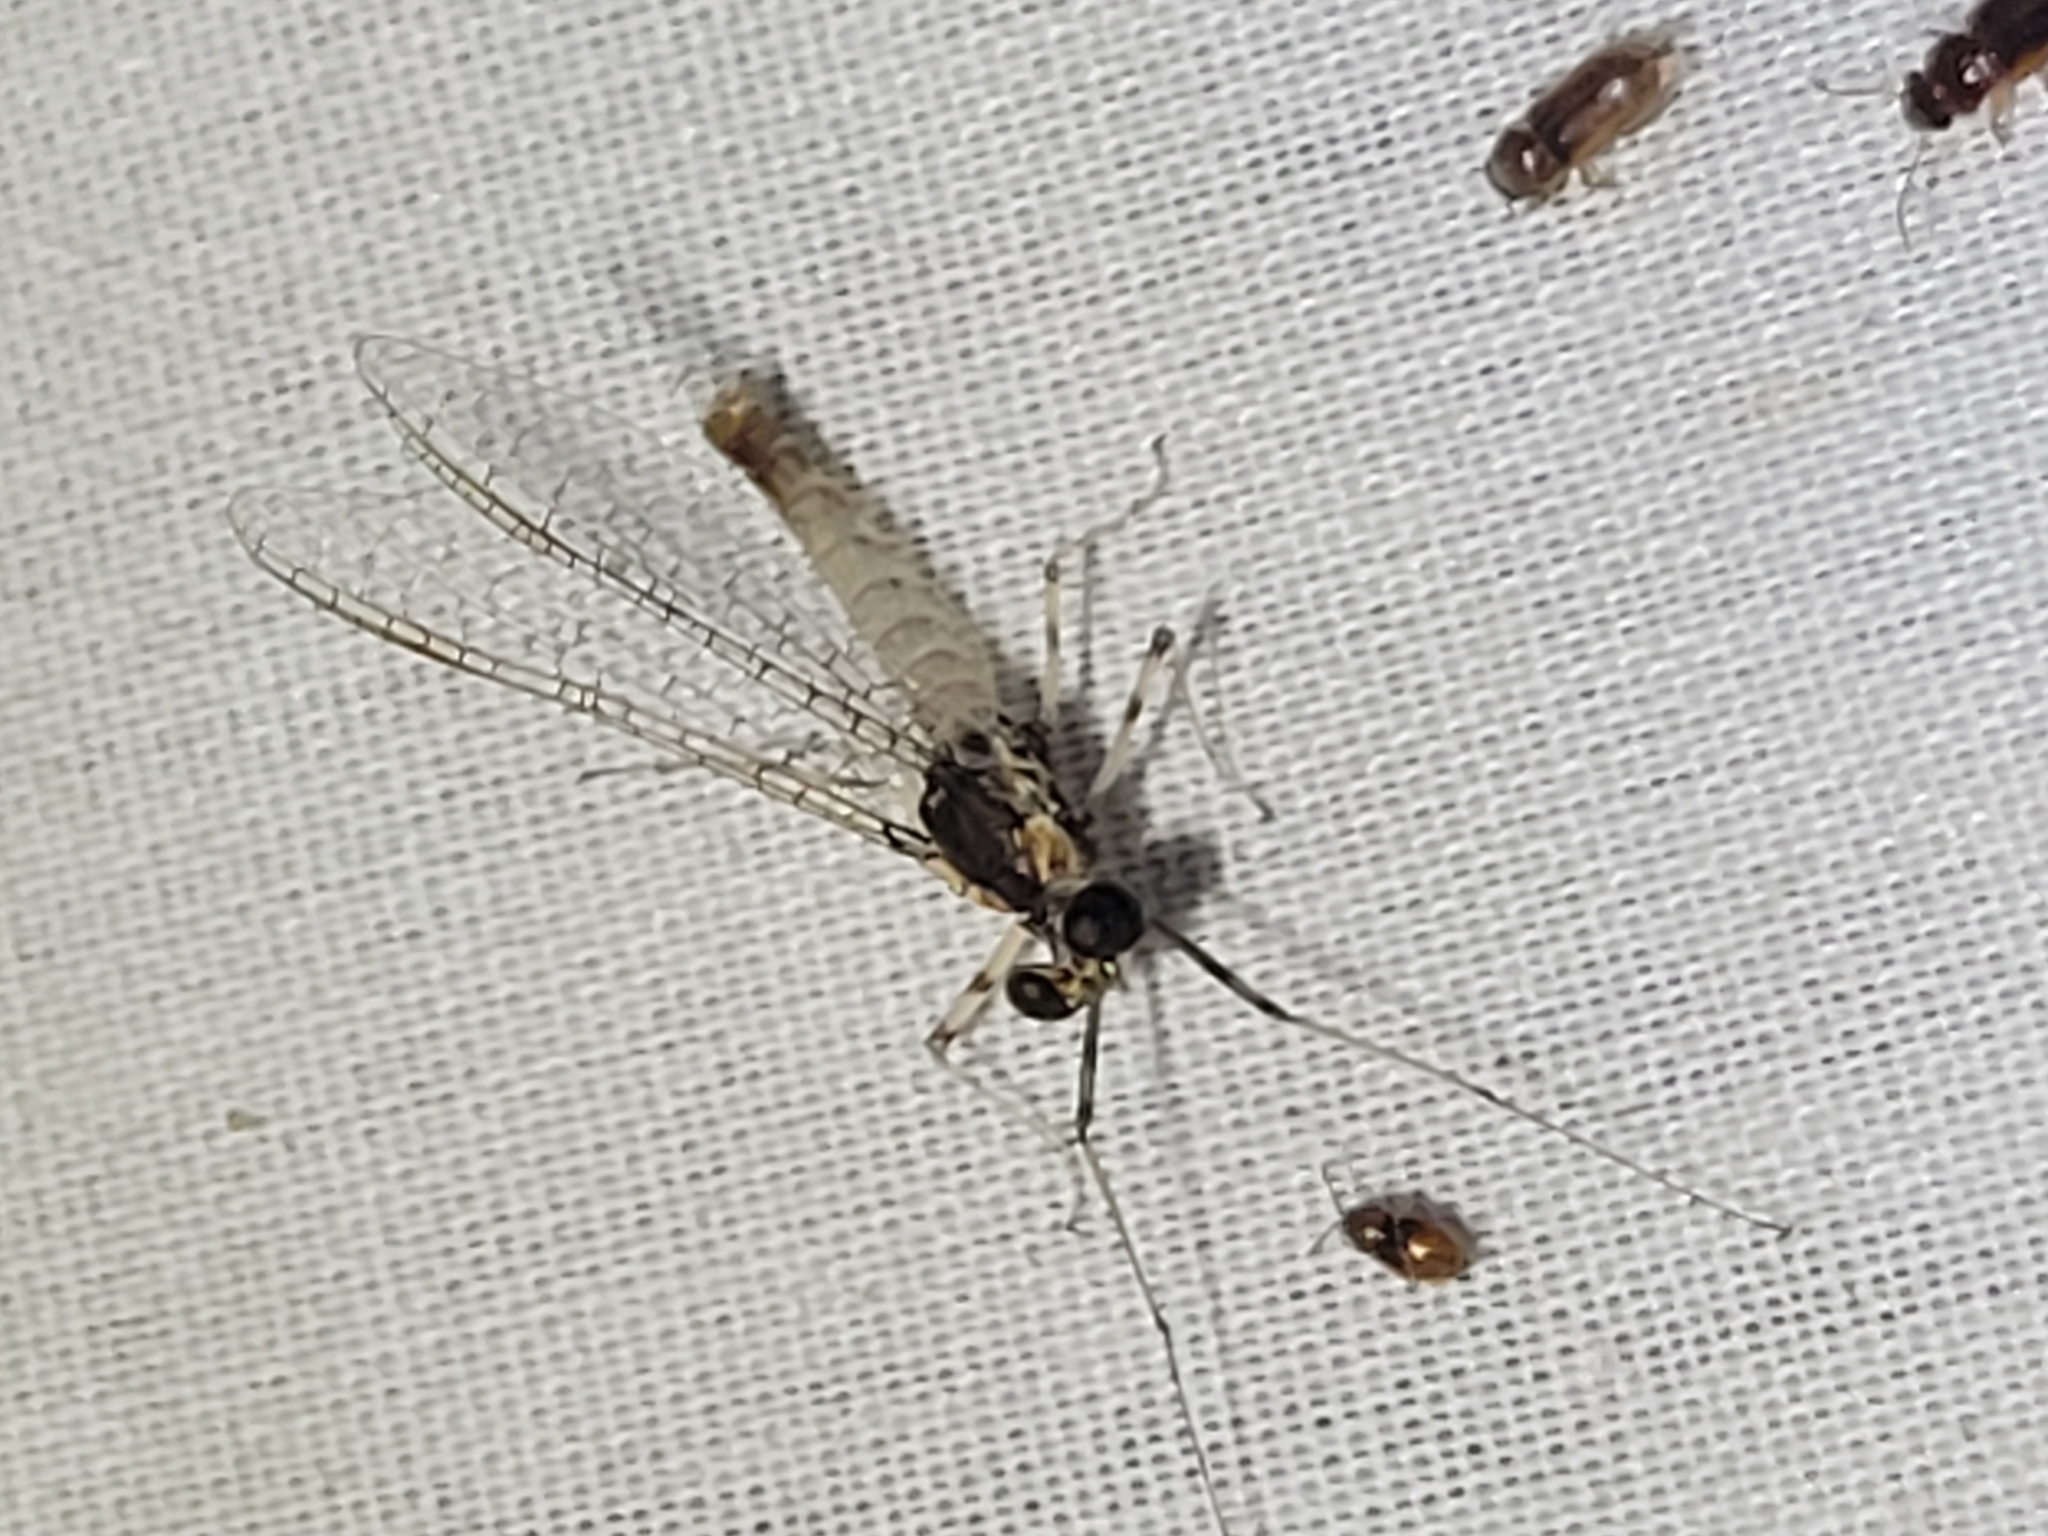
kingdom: Animalia
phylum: Arthropoda
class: Insecta
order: Ephemeroptera
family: Heptageniidae
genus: Maccaffertium
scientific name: Maccaffertium modestum
